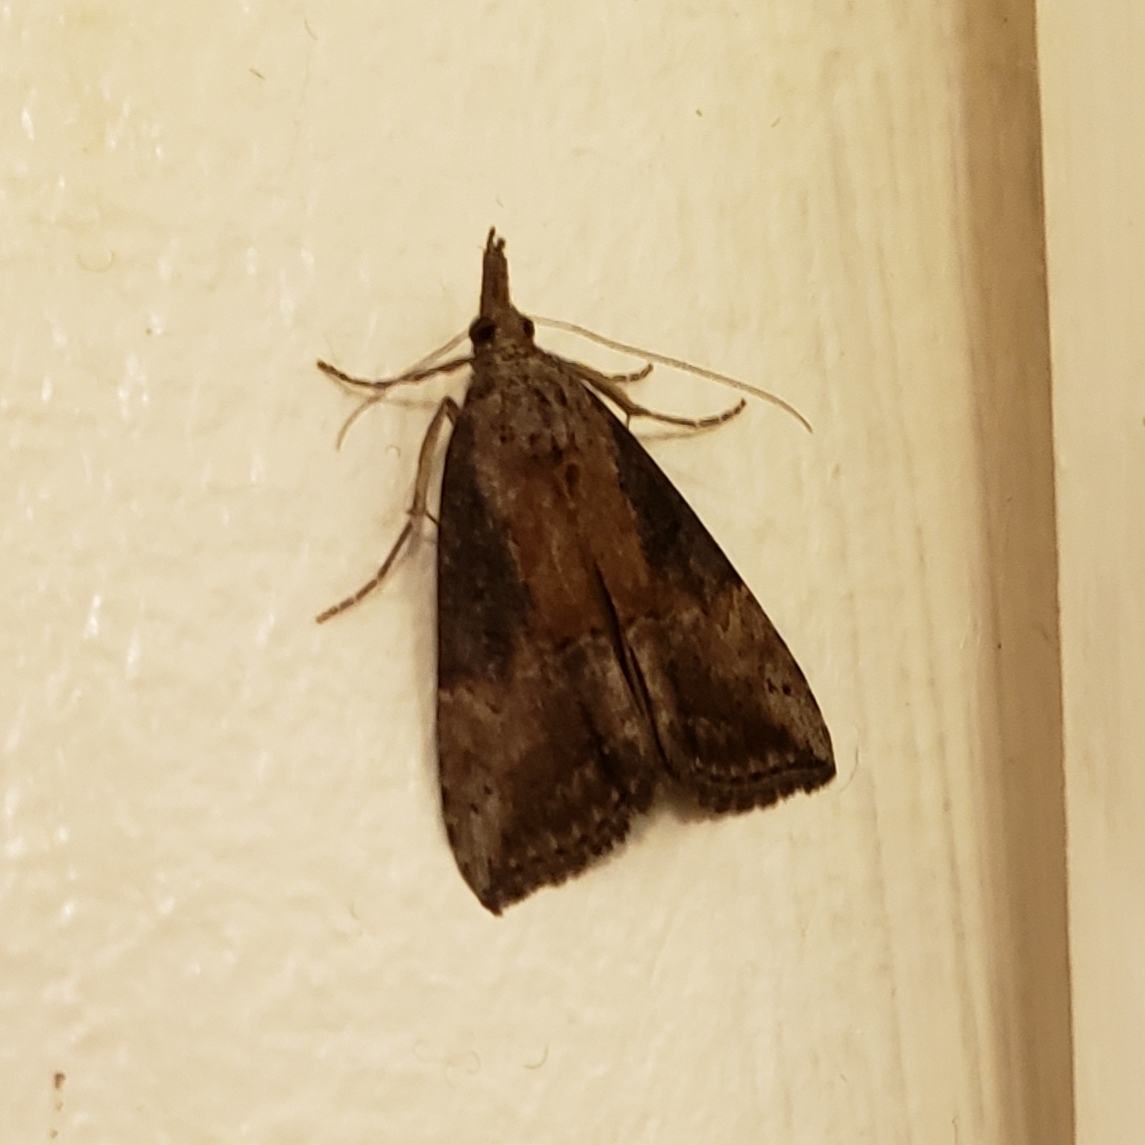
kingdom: Animalia
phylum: Arthropoda
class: Insecta
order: Lepidoptera
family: Erebidae
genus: Hypena
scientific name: Hypena scabra
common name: Green cloverworm
